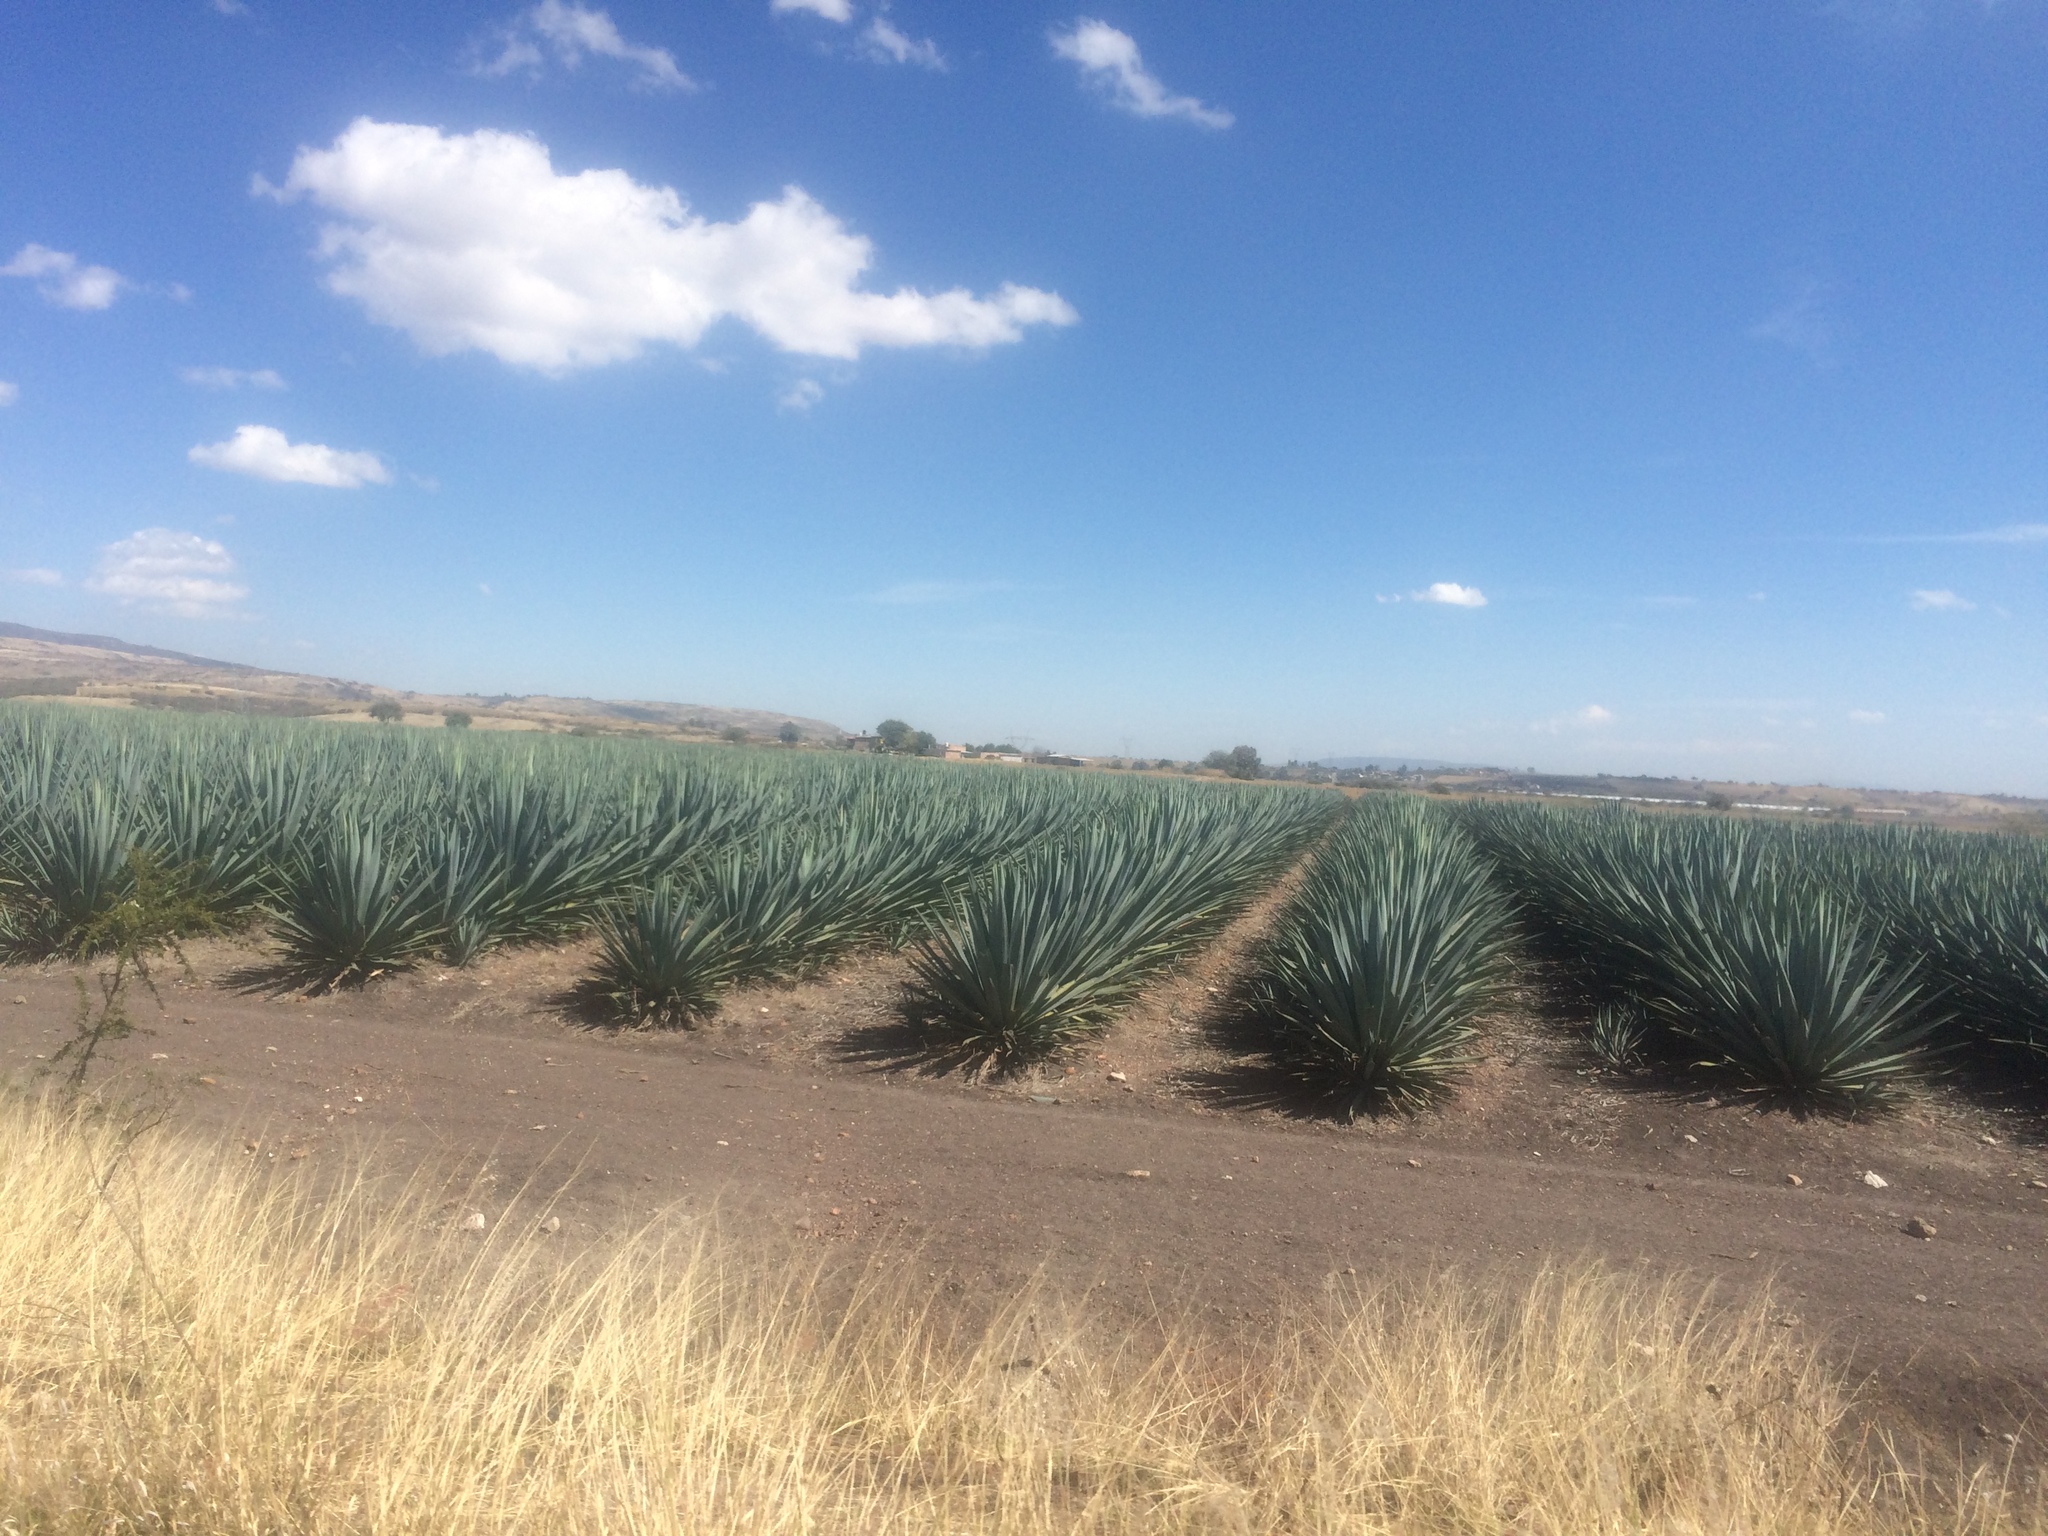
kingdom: Plantae
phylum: Tracheophyta
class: Liliopsida
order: Asparagales
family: Asparagaceae
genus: Agave
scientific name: Agave tequilana
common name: Tequila agave
